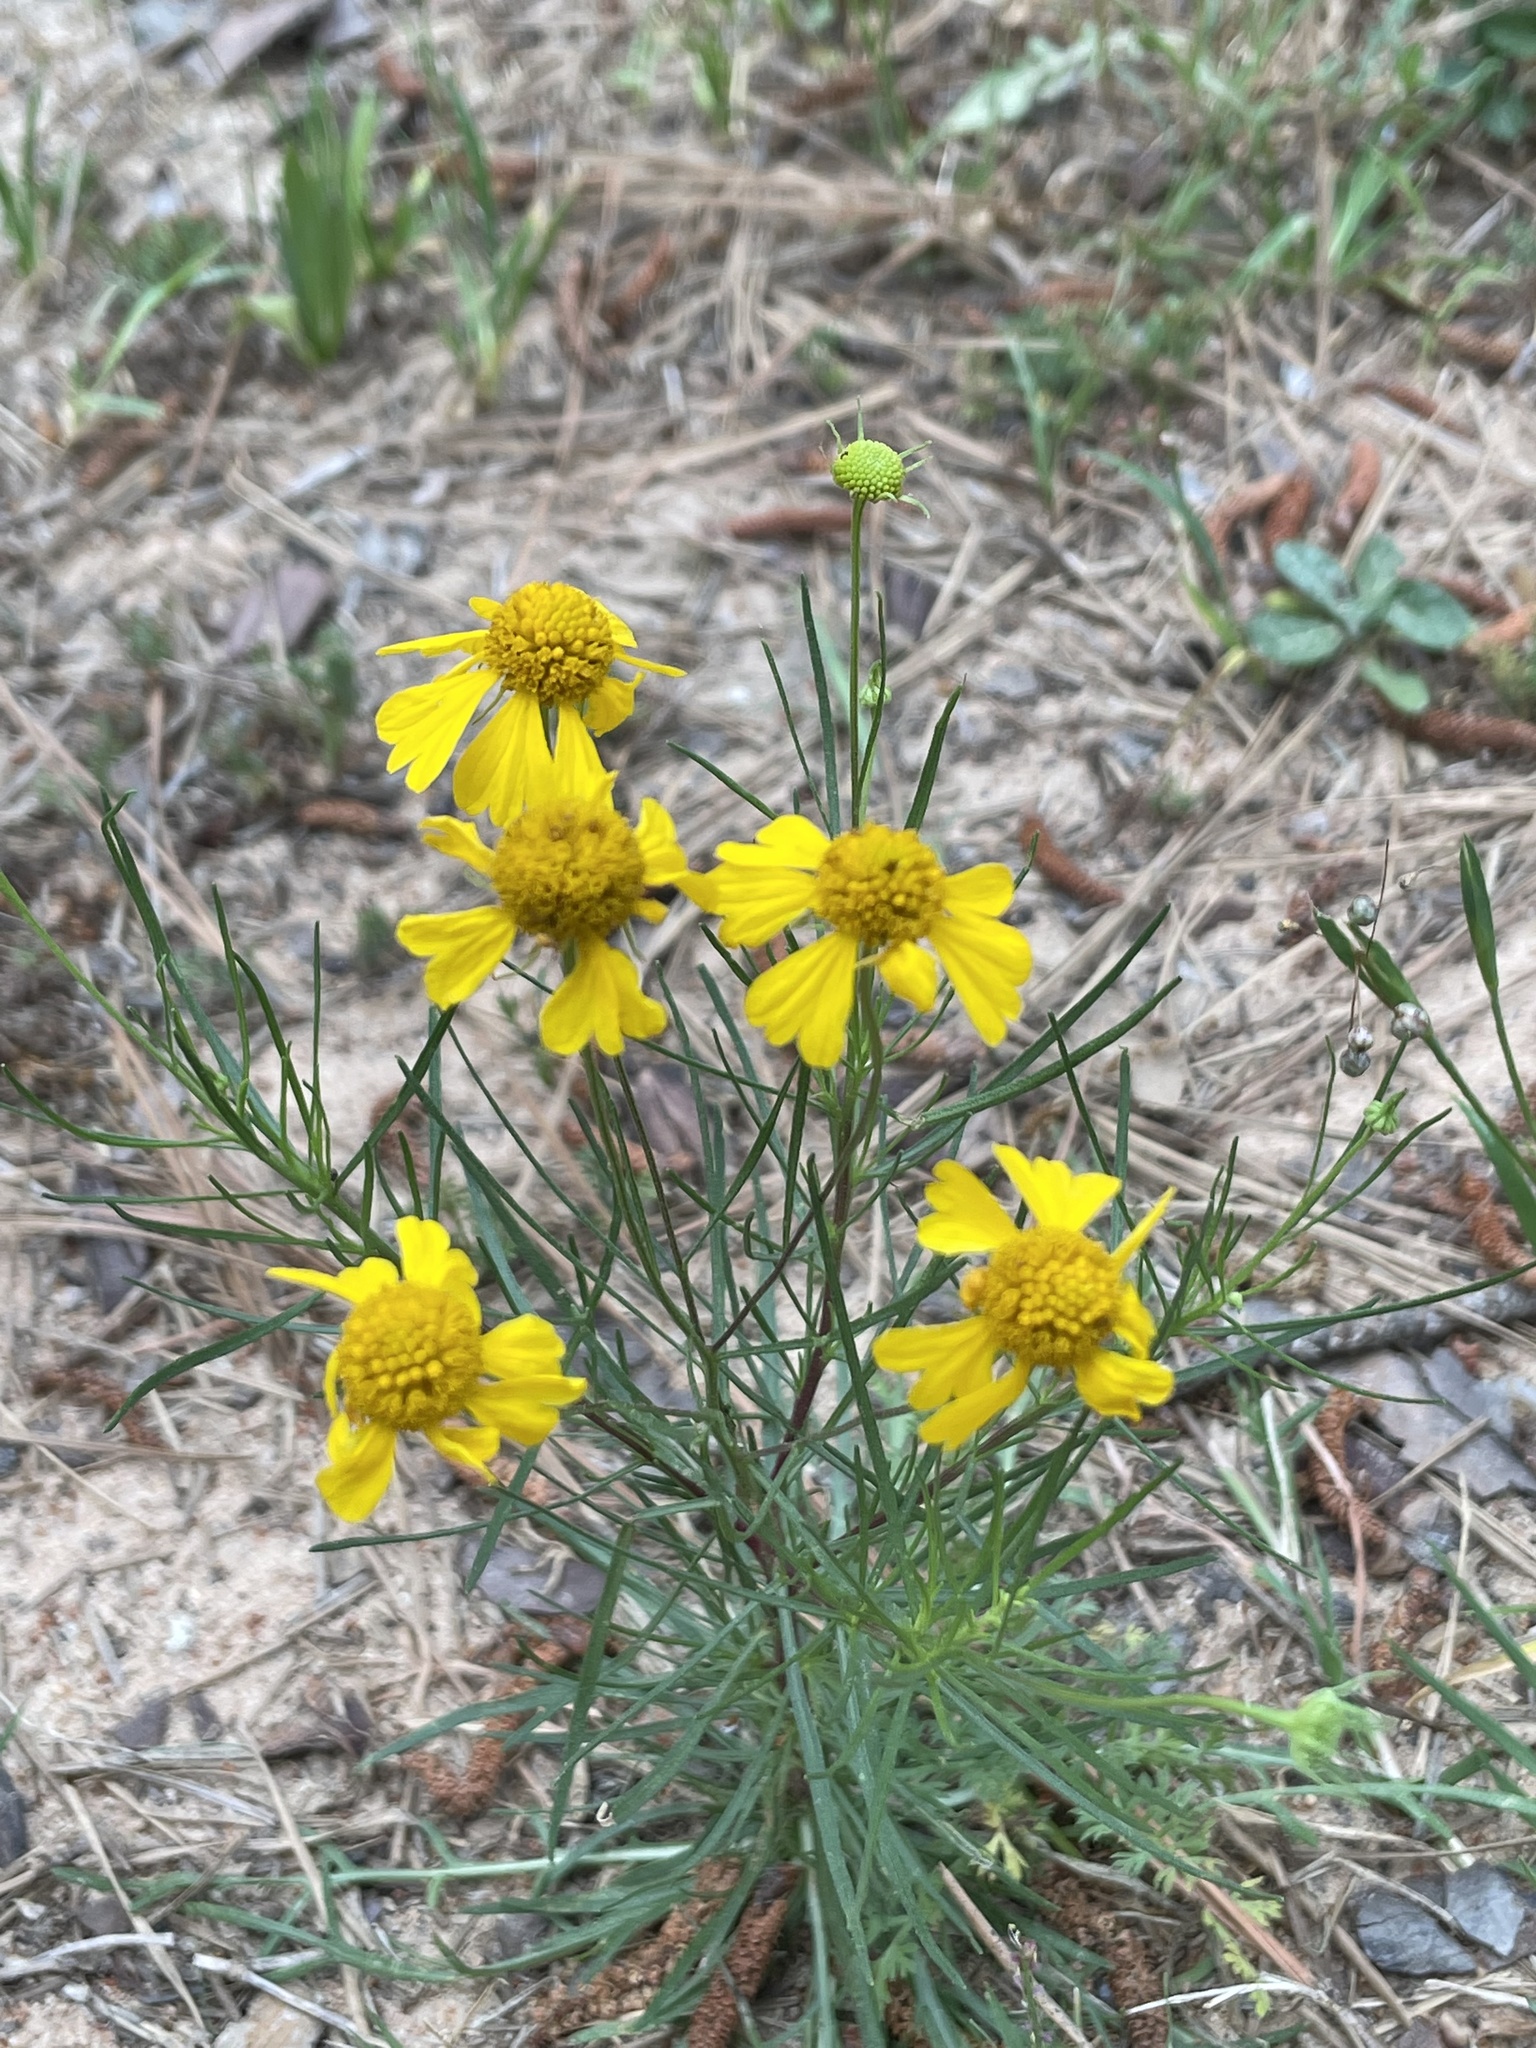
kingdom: Plantae
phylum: Tracheophyta
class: Magnoliopsida
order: Asterales
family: Asteraceae
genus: Helenium
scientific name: Helenium amarum
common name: Bitter sneezeweed
